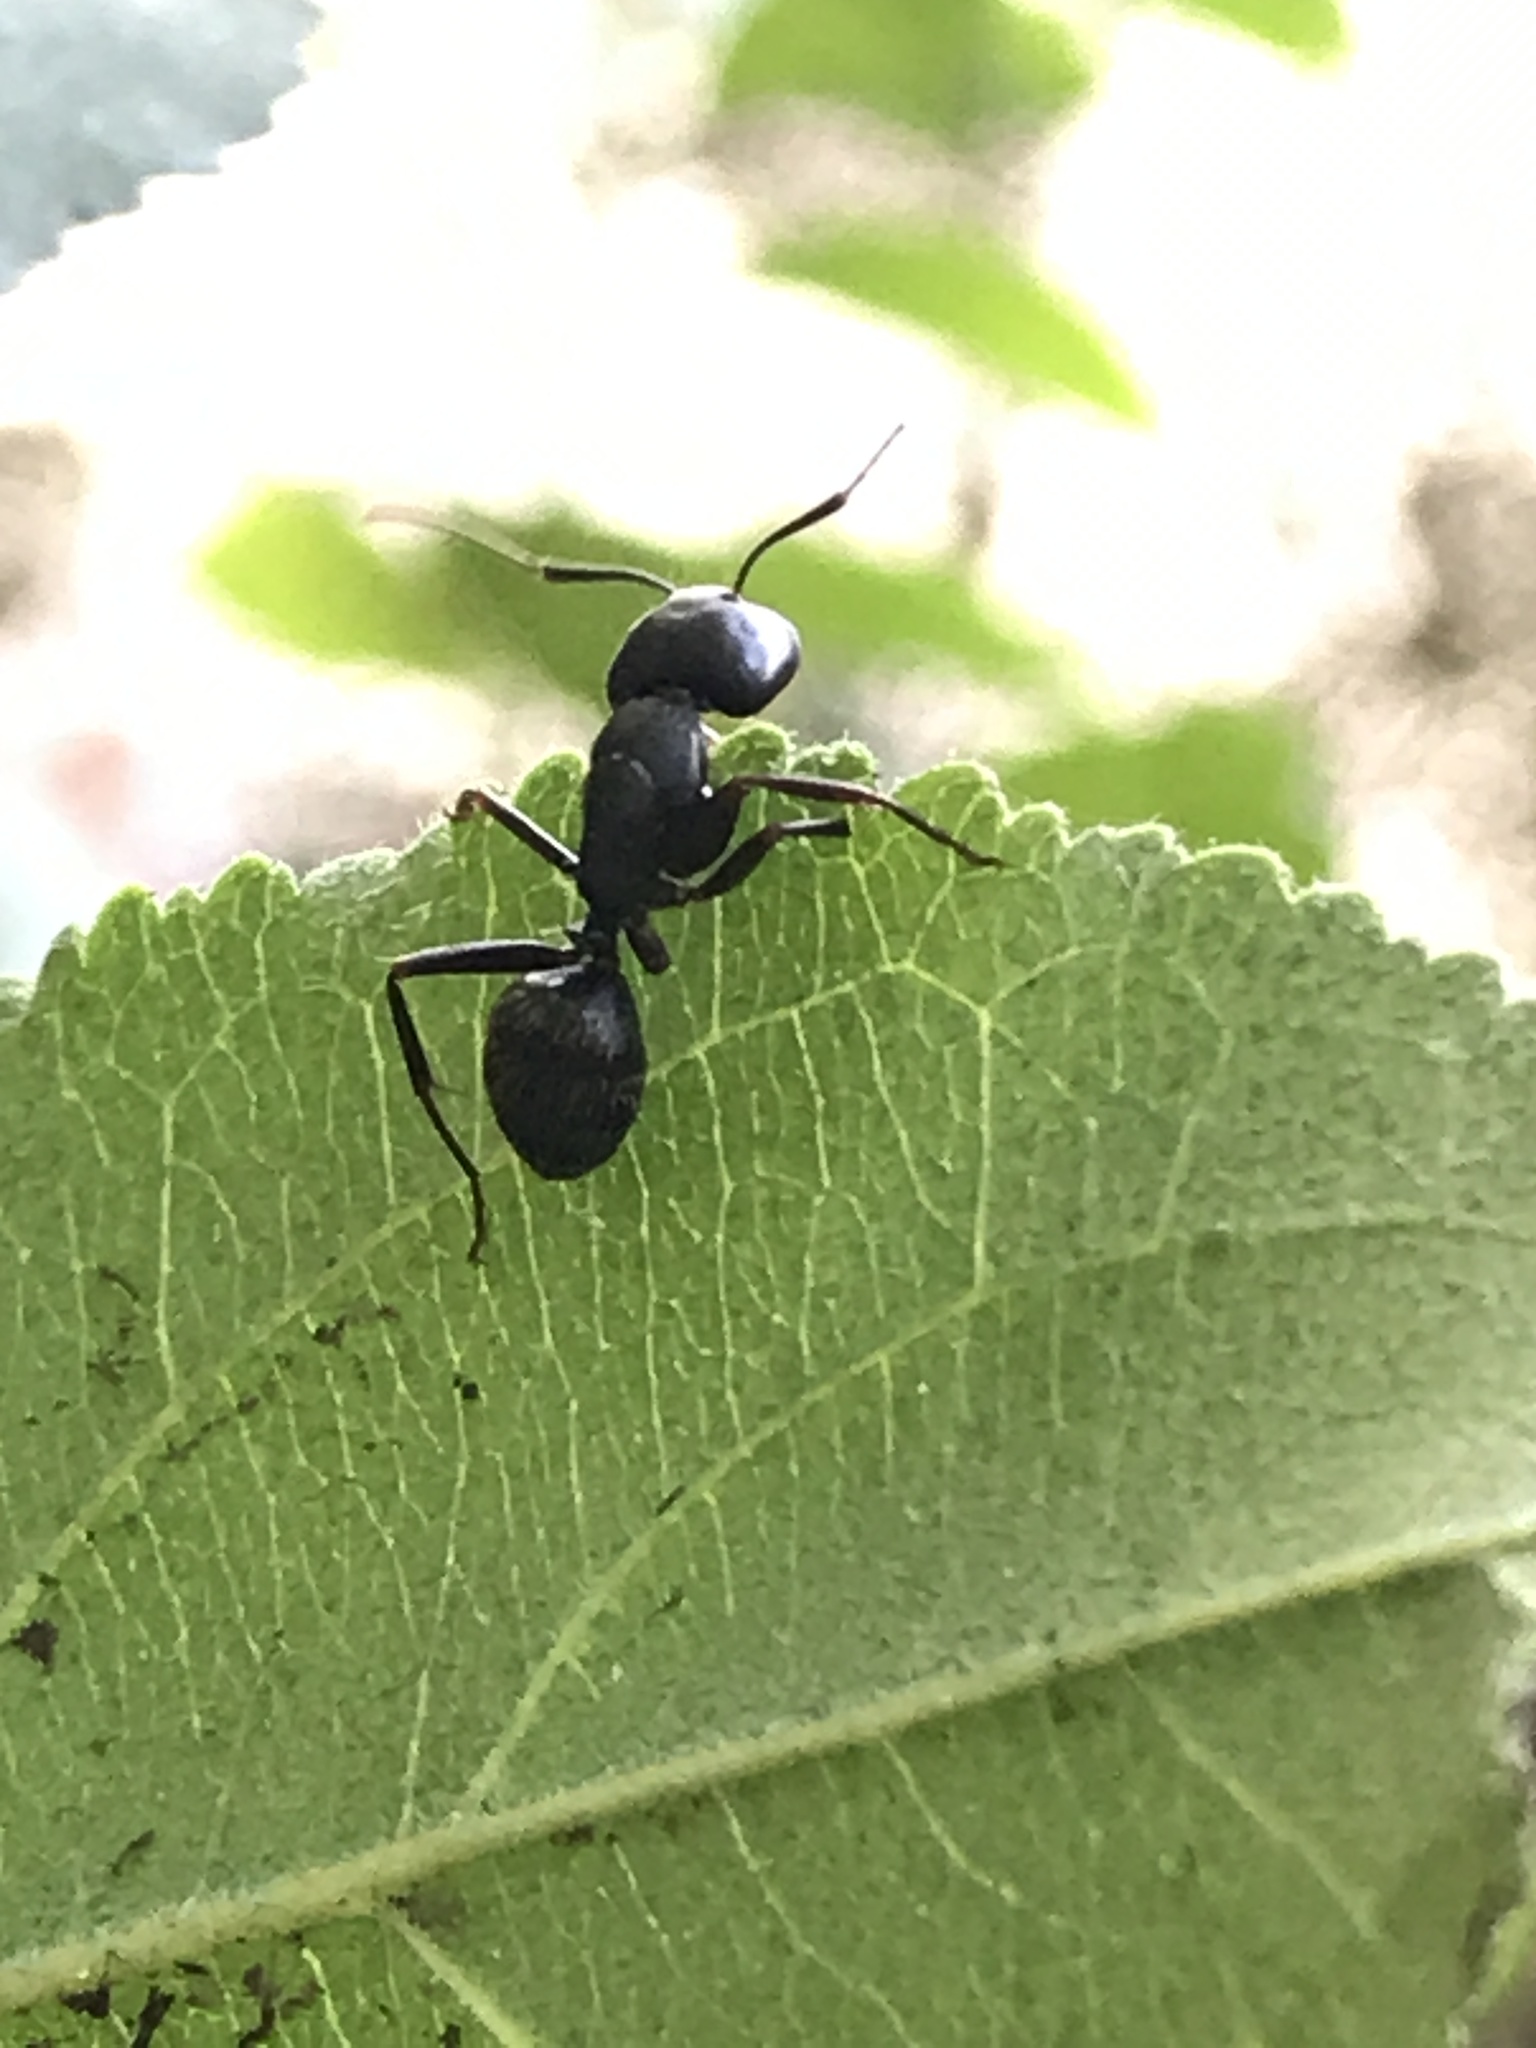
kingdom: Animalia
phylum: Arthropoda
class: Insecta
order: Hymenoptera
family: Formicidae
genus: Camponotus
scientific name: Camponotus pennsylvanicus
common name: Black carpenter ant
